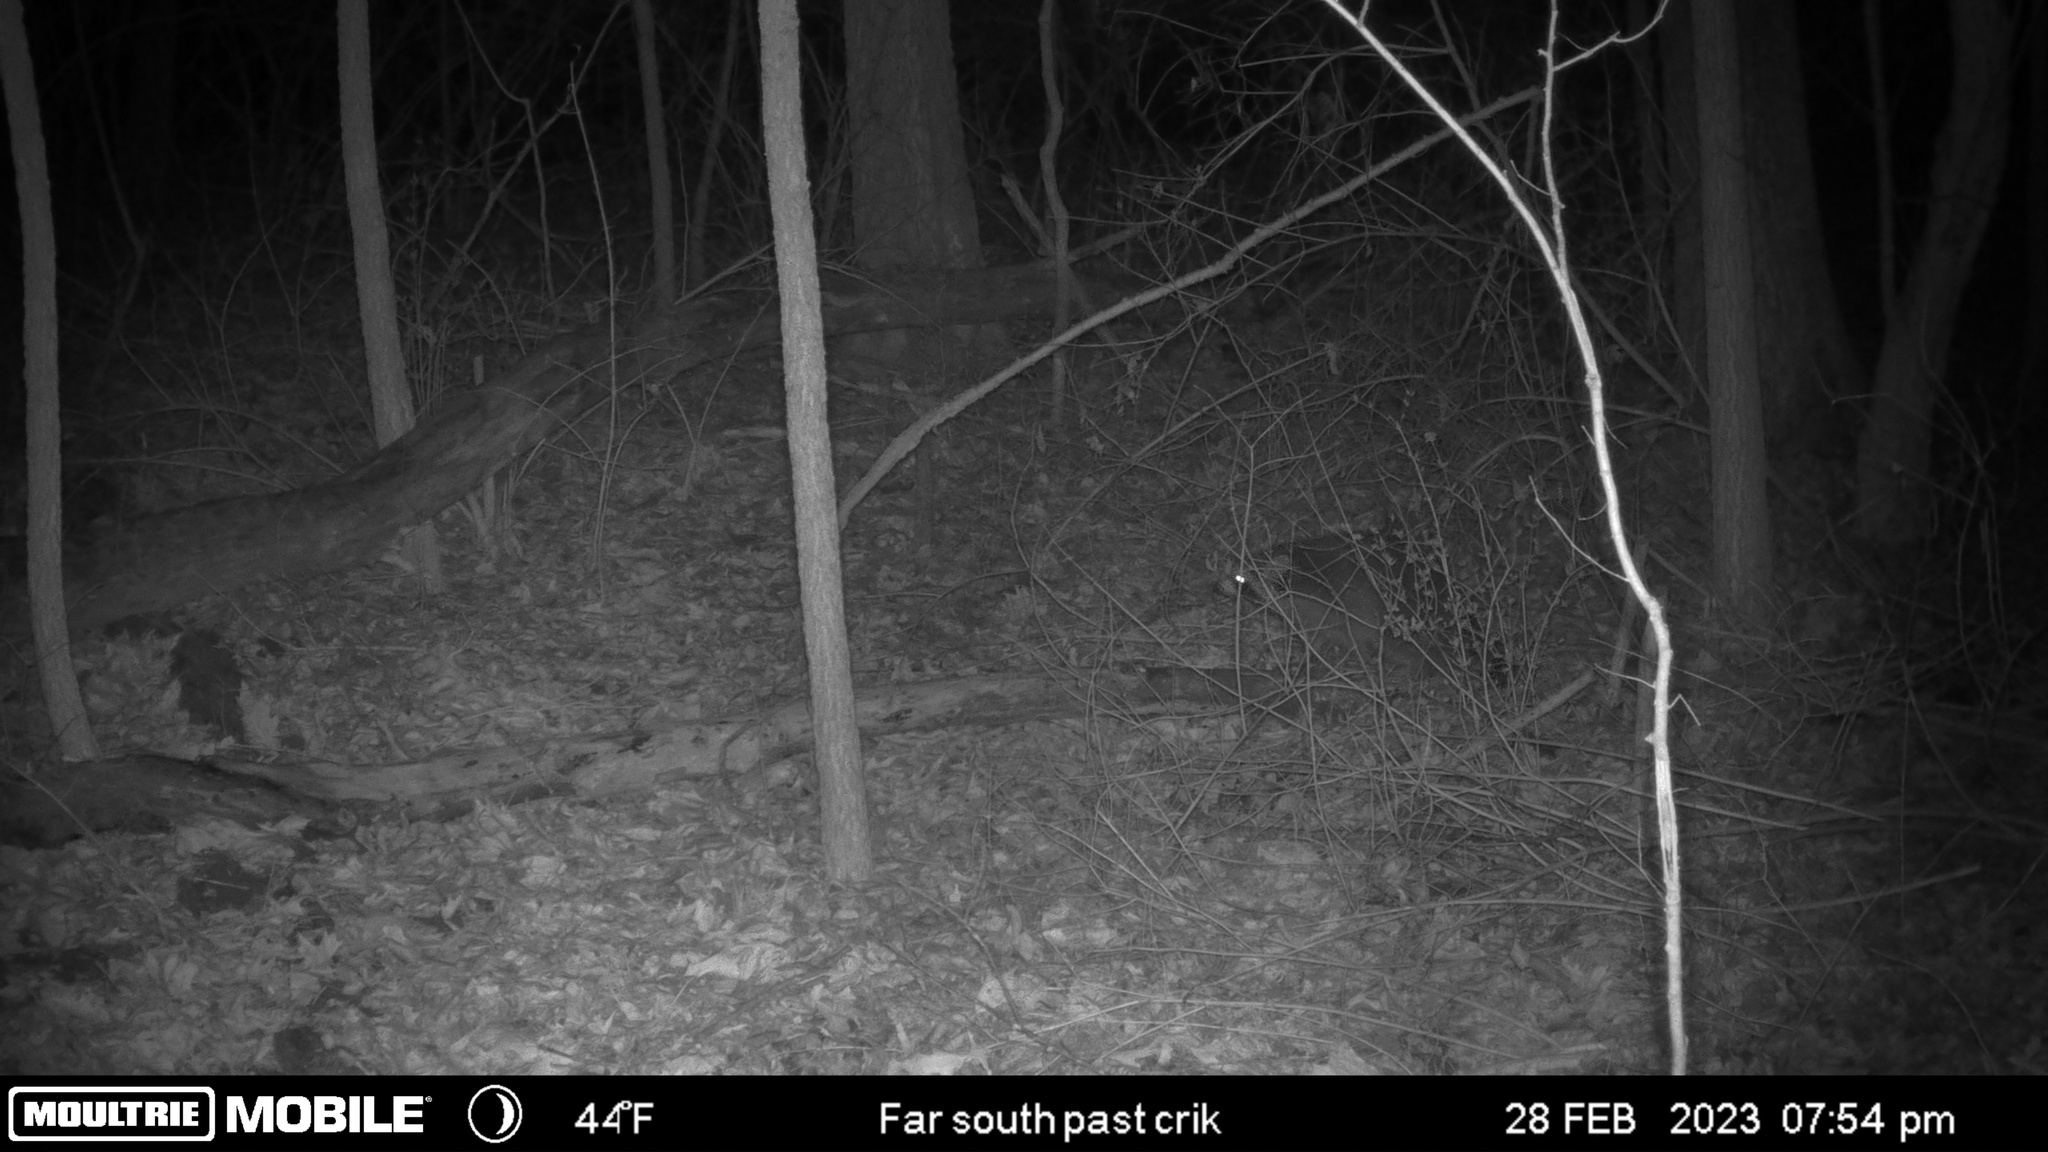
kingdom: Animalia
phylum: Chordata
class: Mammalia
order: Carnivora
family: Procyonidae
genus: Procyon
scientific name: Procyon lotor
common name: Raccoon
